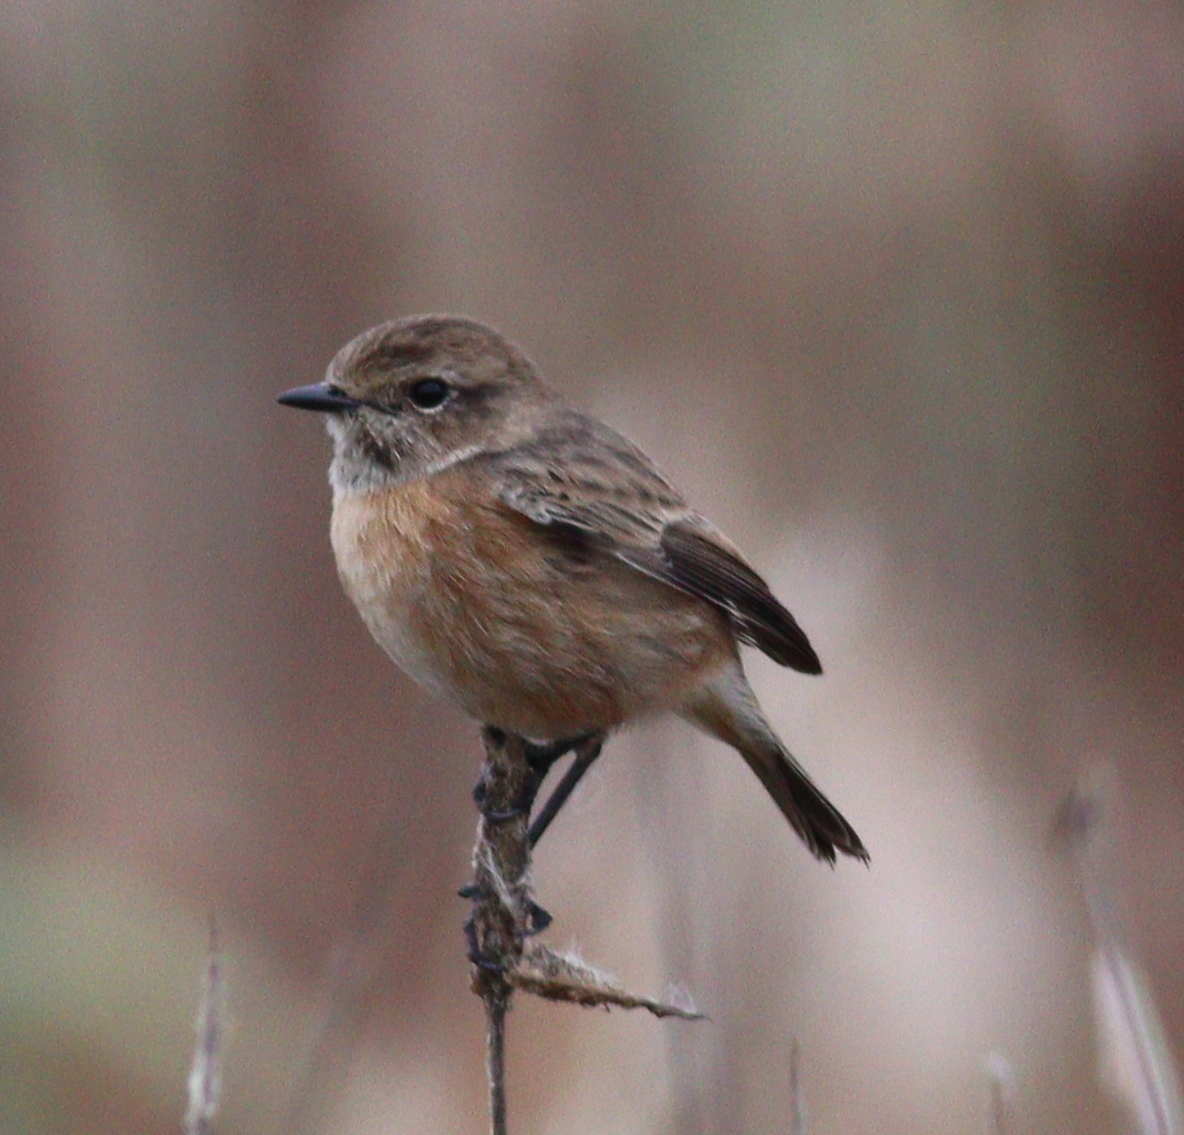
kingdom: Animalia
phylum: Chordata
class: Aves
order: Passeriformes
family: Muscicapidae
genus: Saxicola
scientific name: Saxicola rubicola
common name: European stonechat
